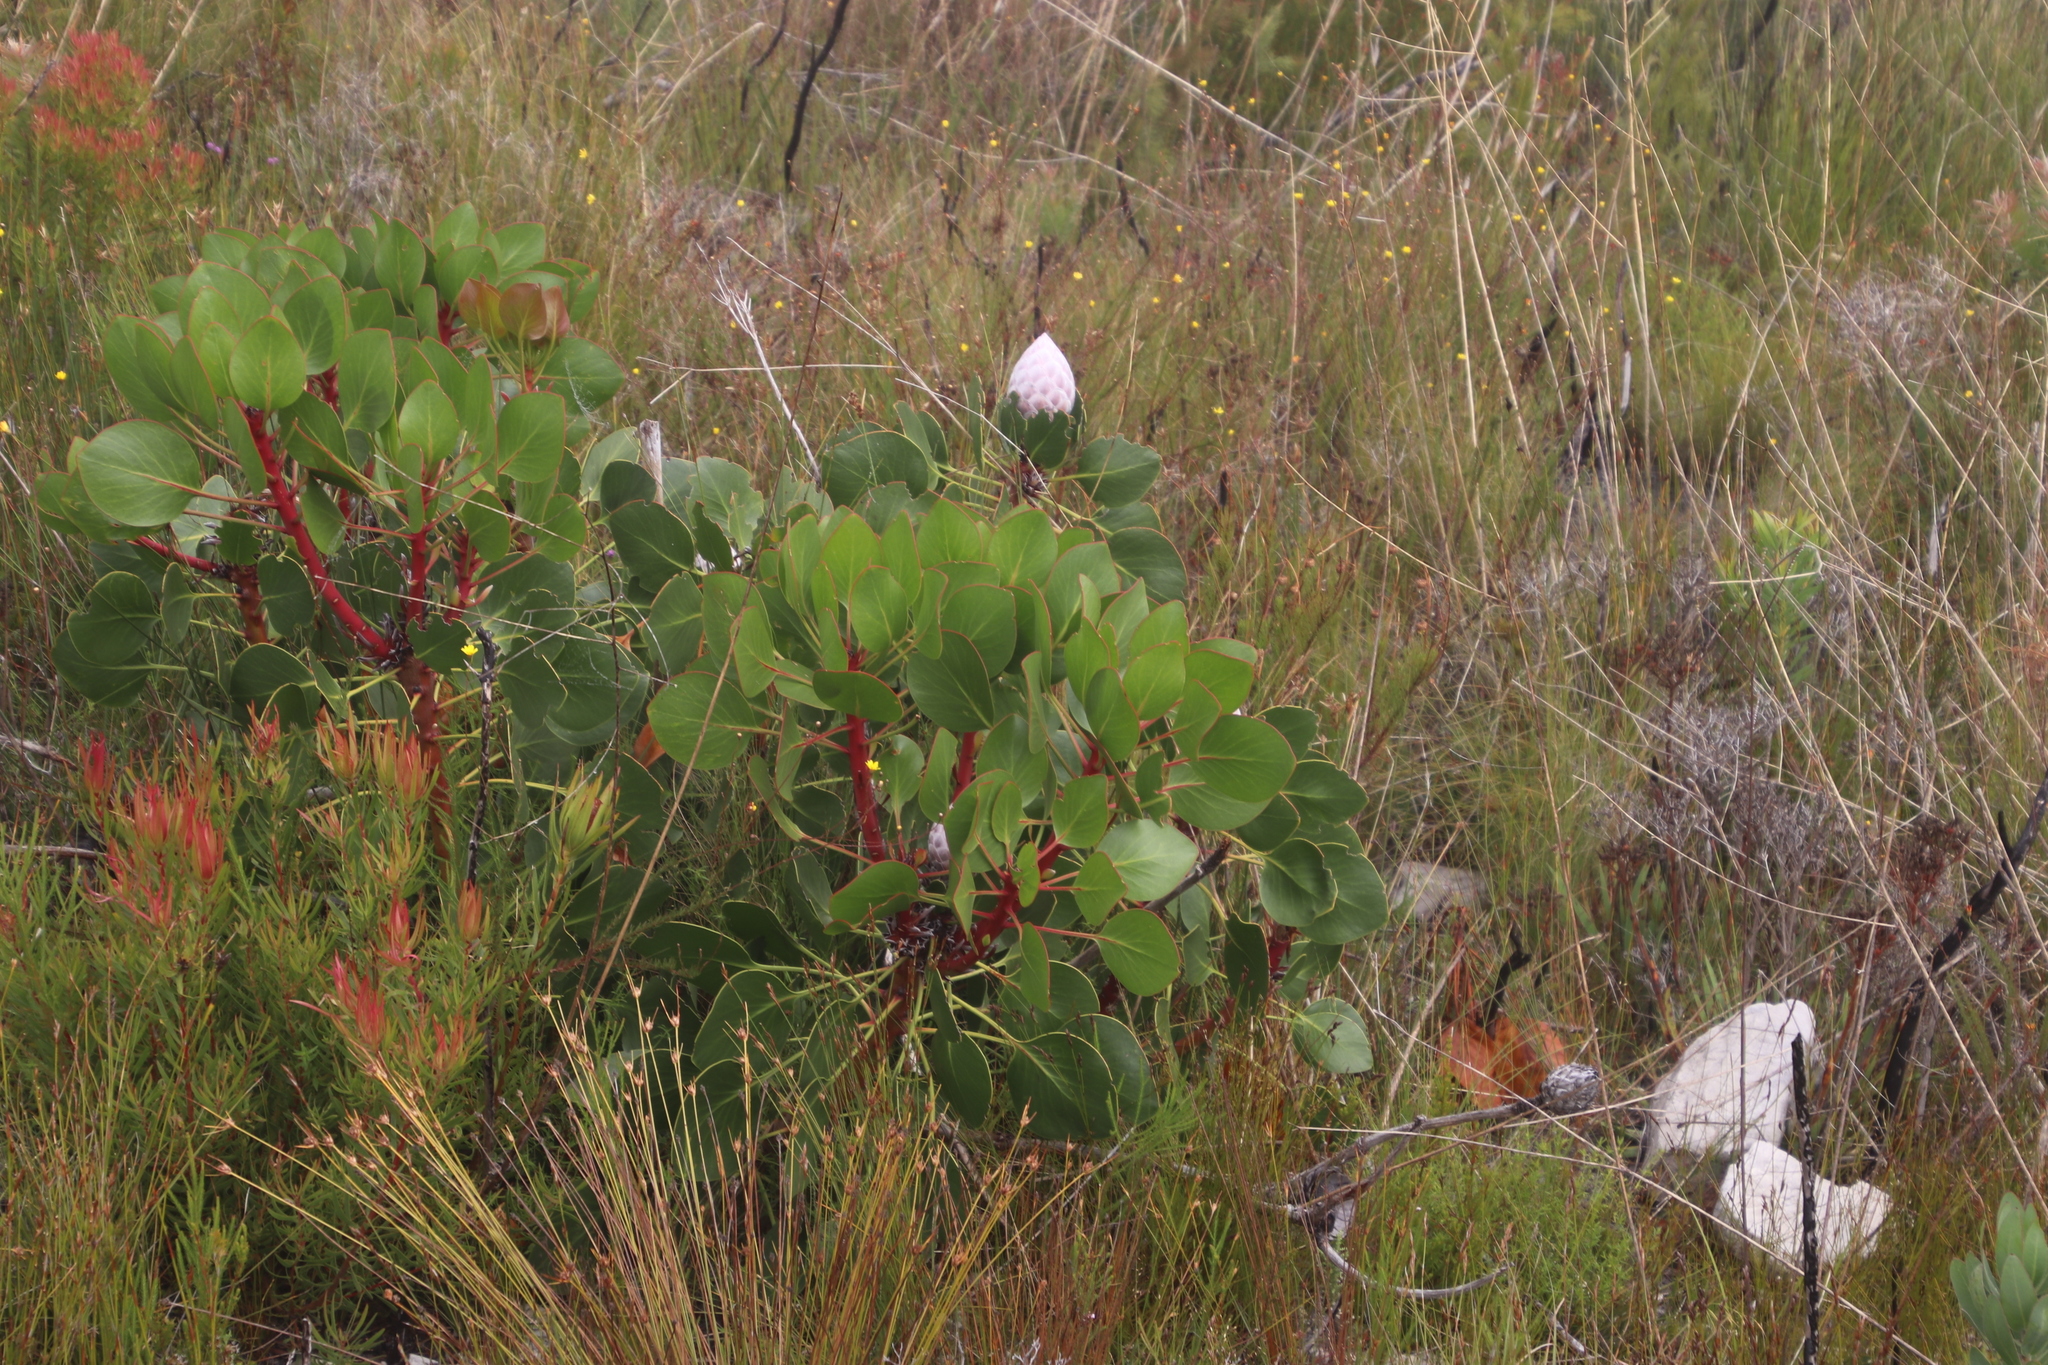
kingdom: Plantae
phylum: Tracheophyta
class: Magnoliopsida
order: Proteales
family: Proteaceae
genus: Protea
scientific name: Protea cynaroides
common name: King protea
